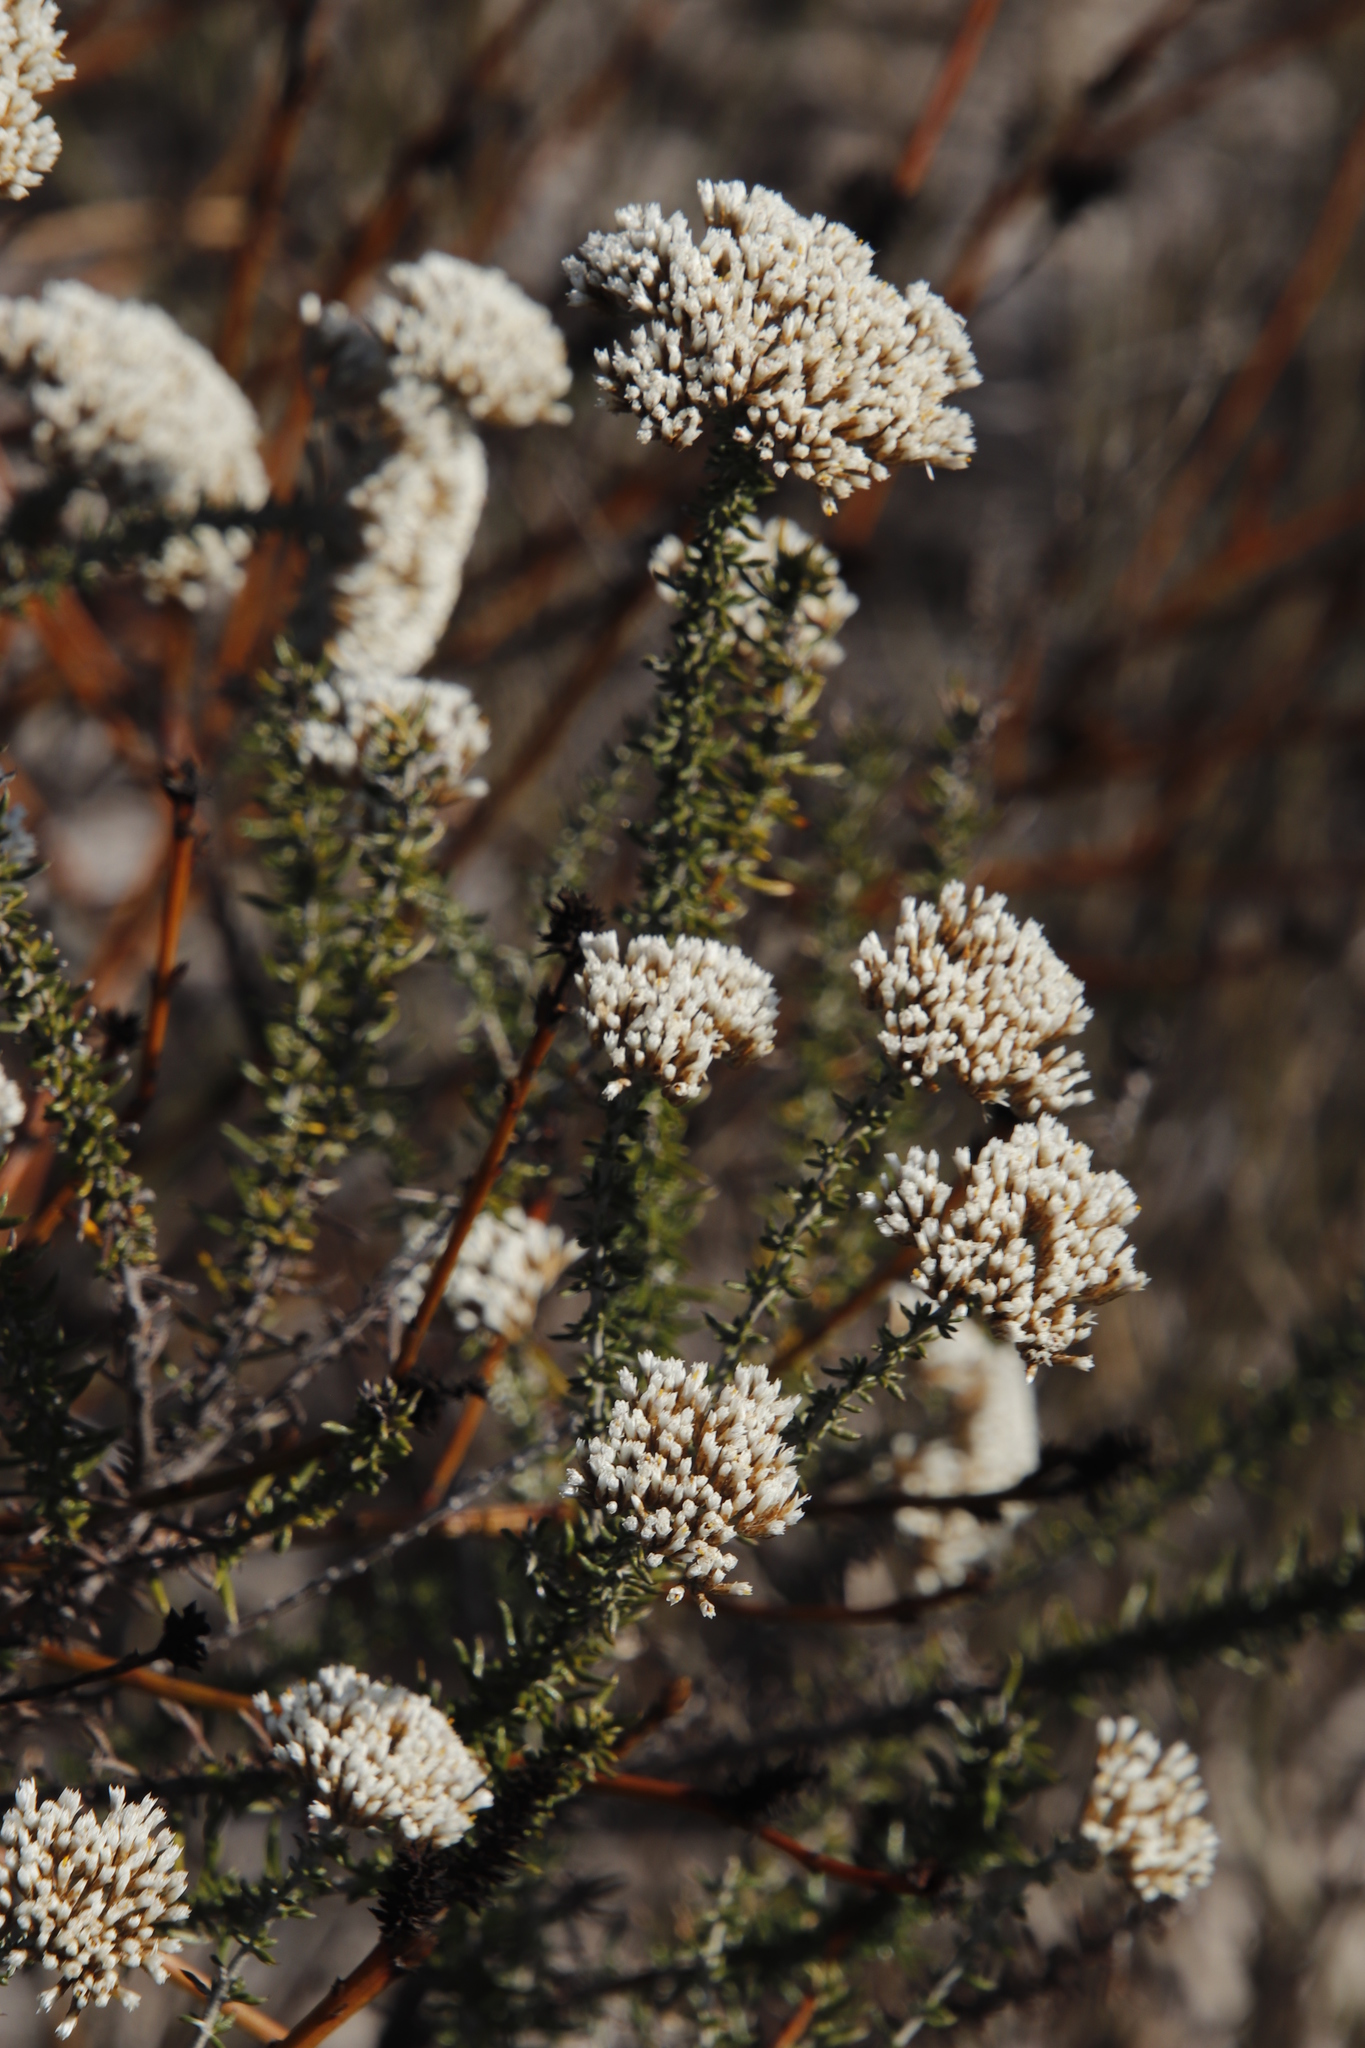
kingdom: Plantae
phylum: Tracheophyta
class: Magnoliopsida
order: Asterales
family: Asteraceae
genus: Metalasia
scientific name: Metalasia densa
